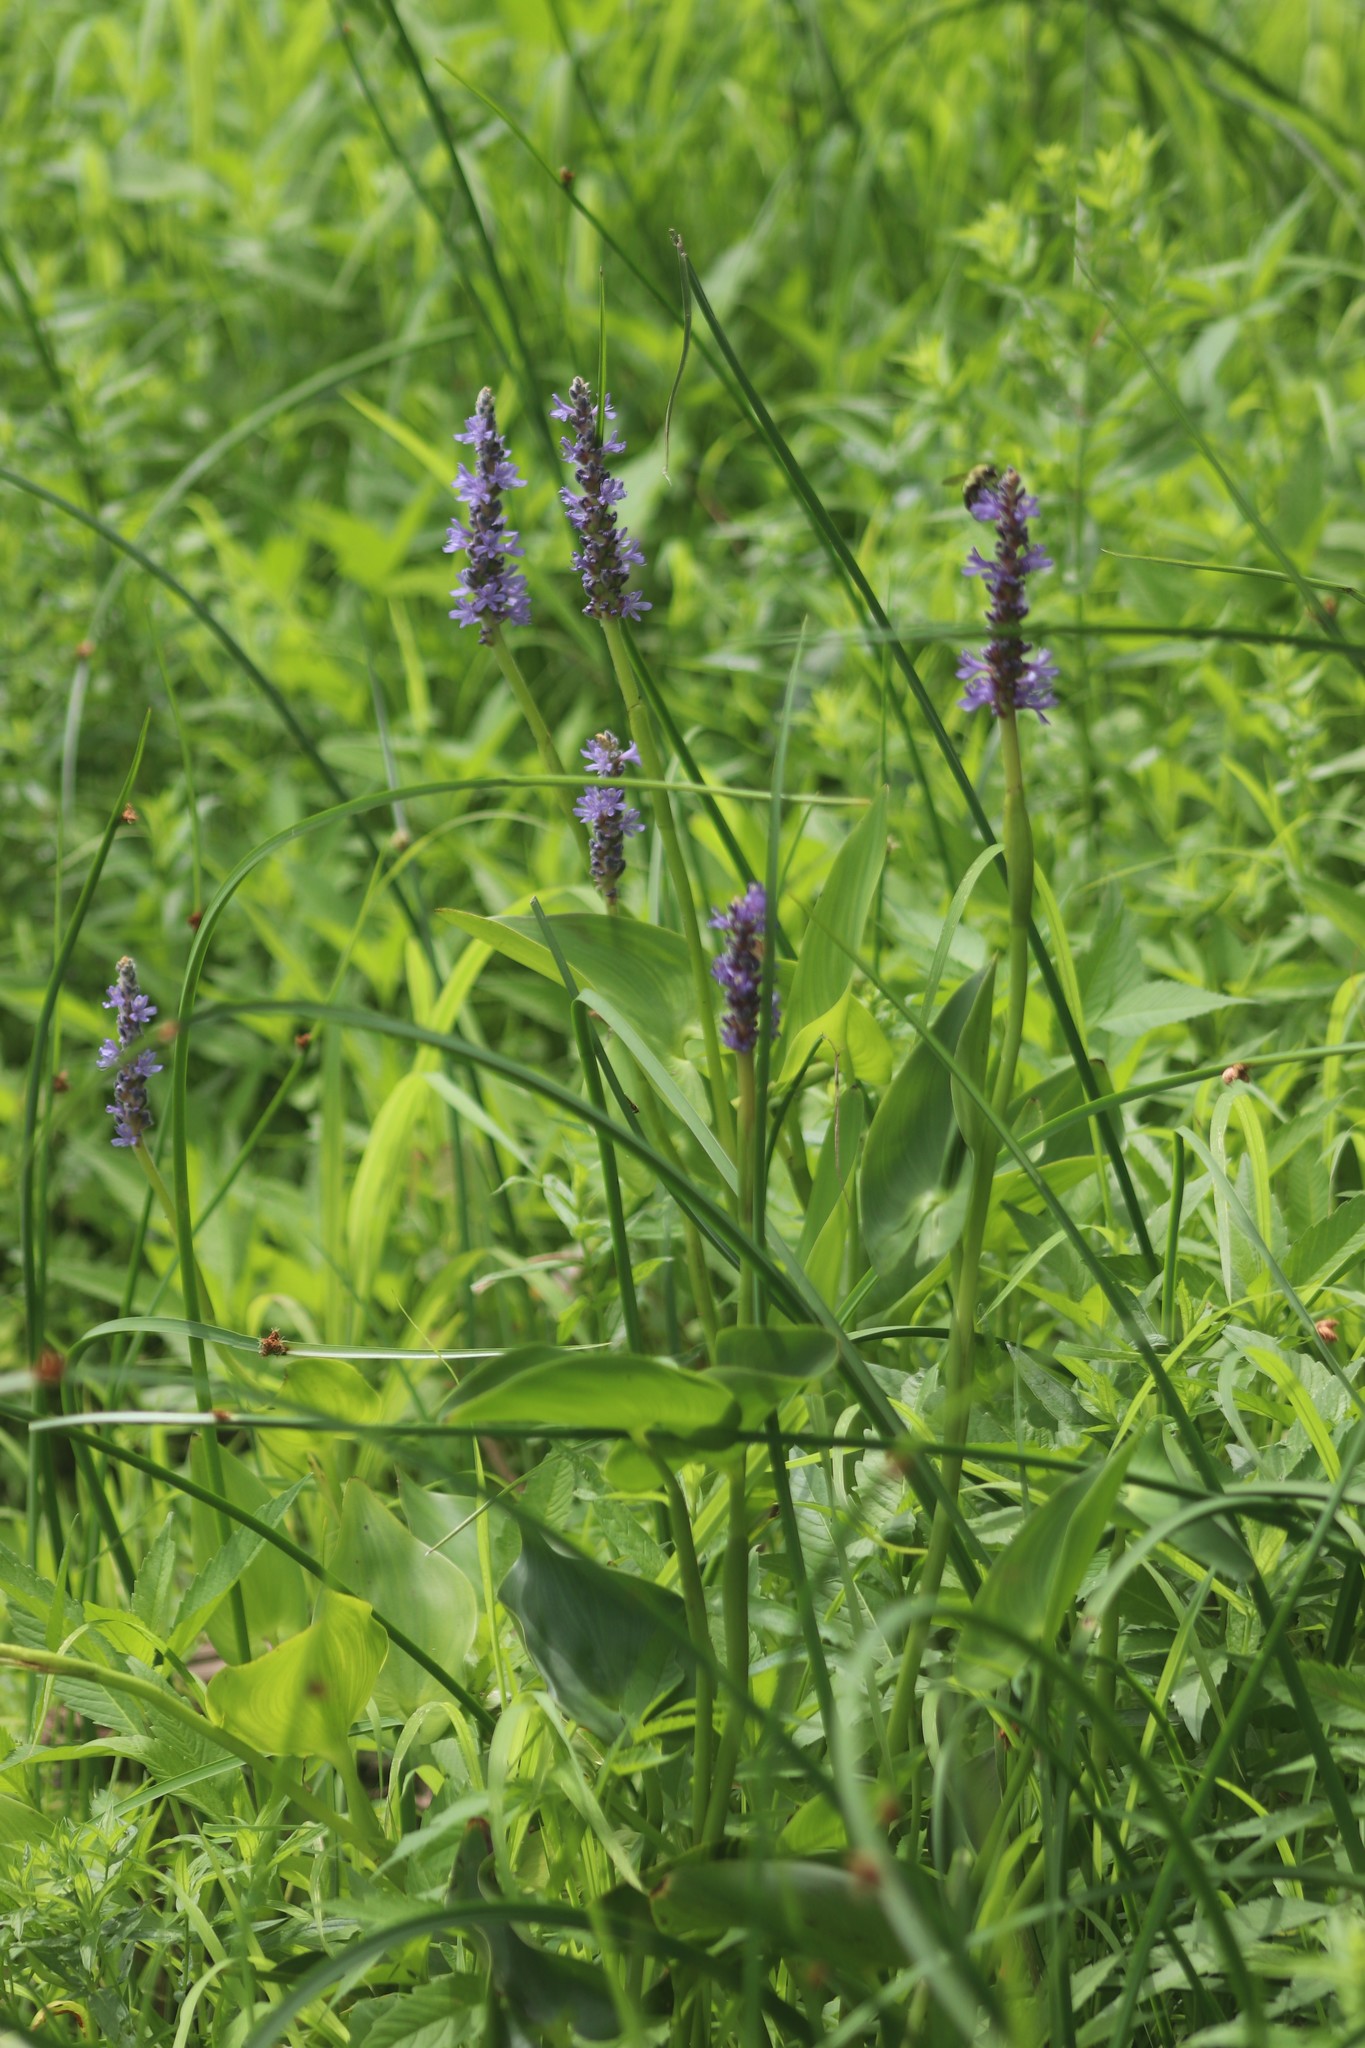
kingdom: Plantae
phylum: Tracheophyta
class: Liliopsida
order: Commelinales
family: Pontederiaceae
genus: Pontederia
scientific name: Pontederia cordata
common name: Pickerelweed
